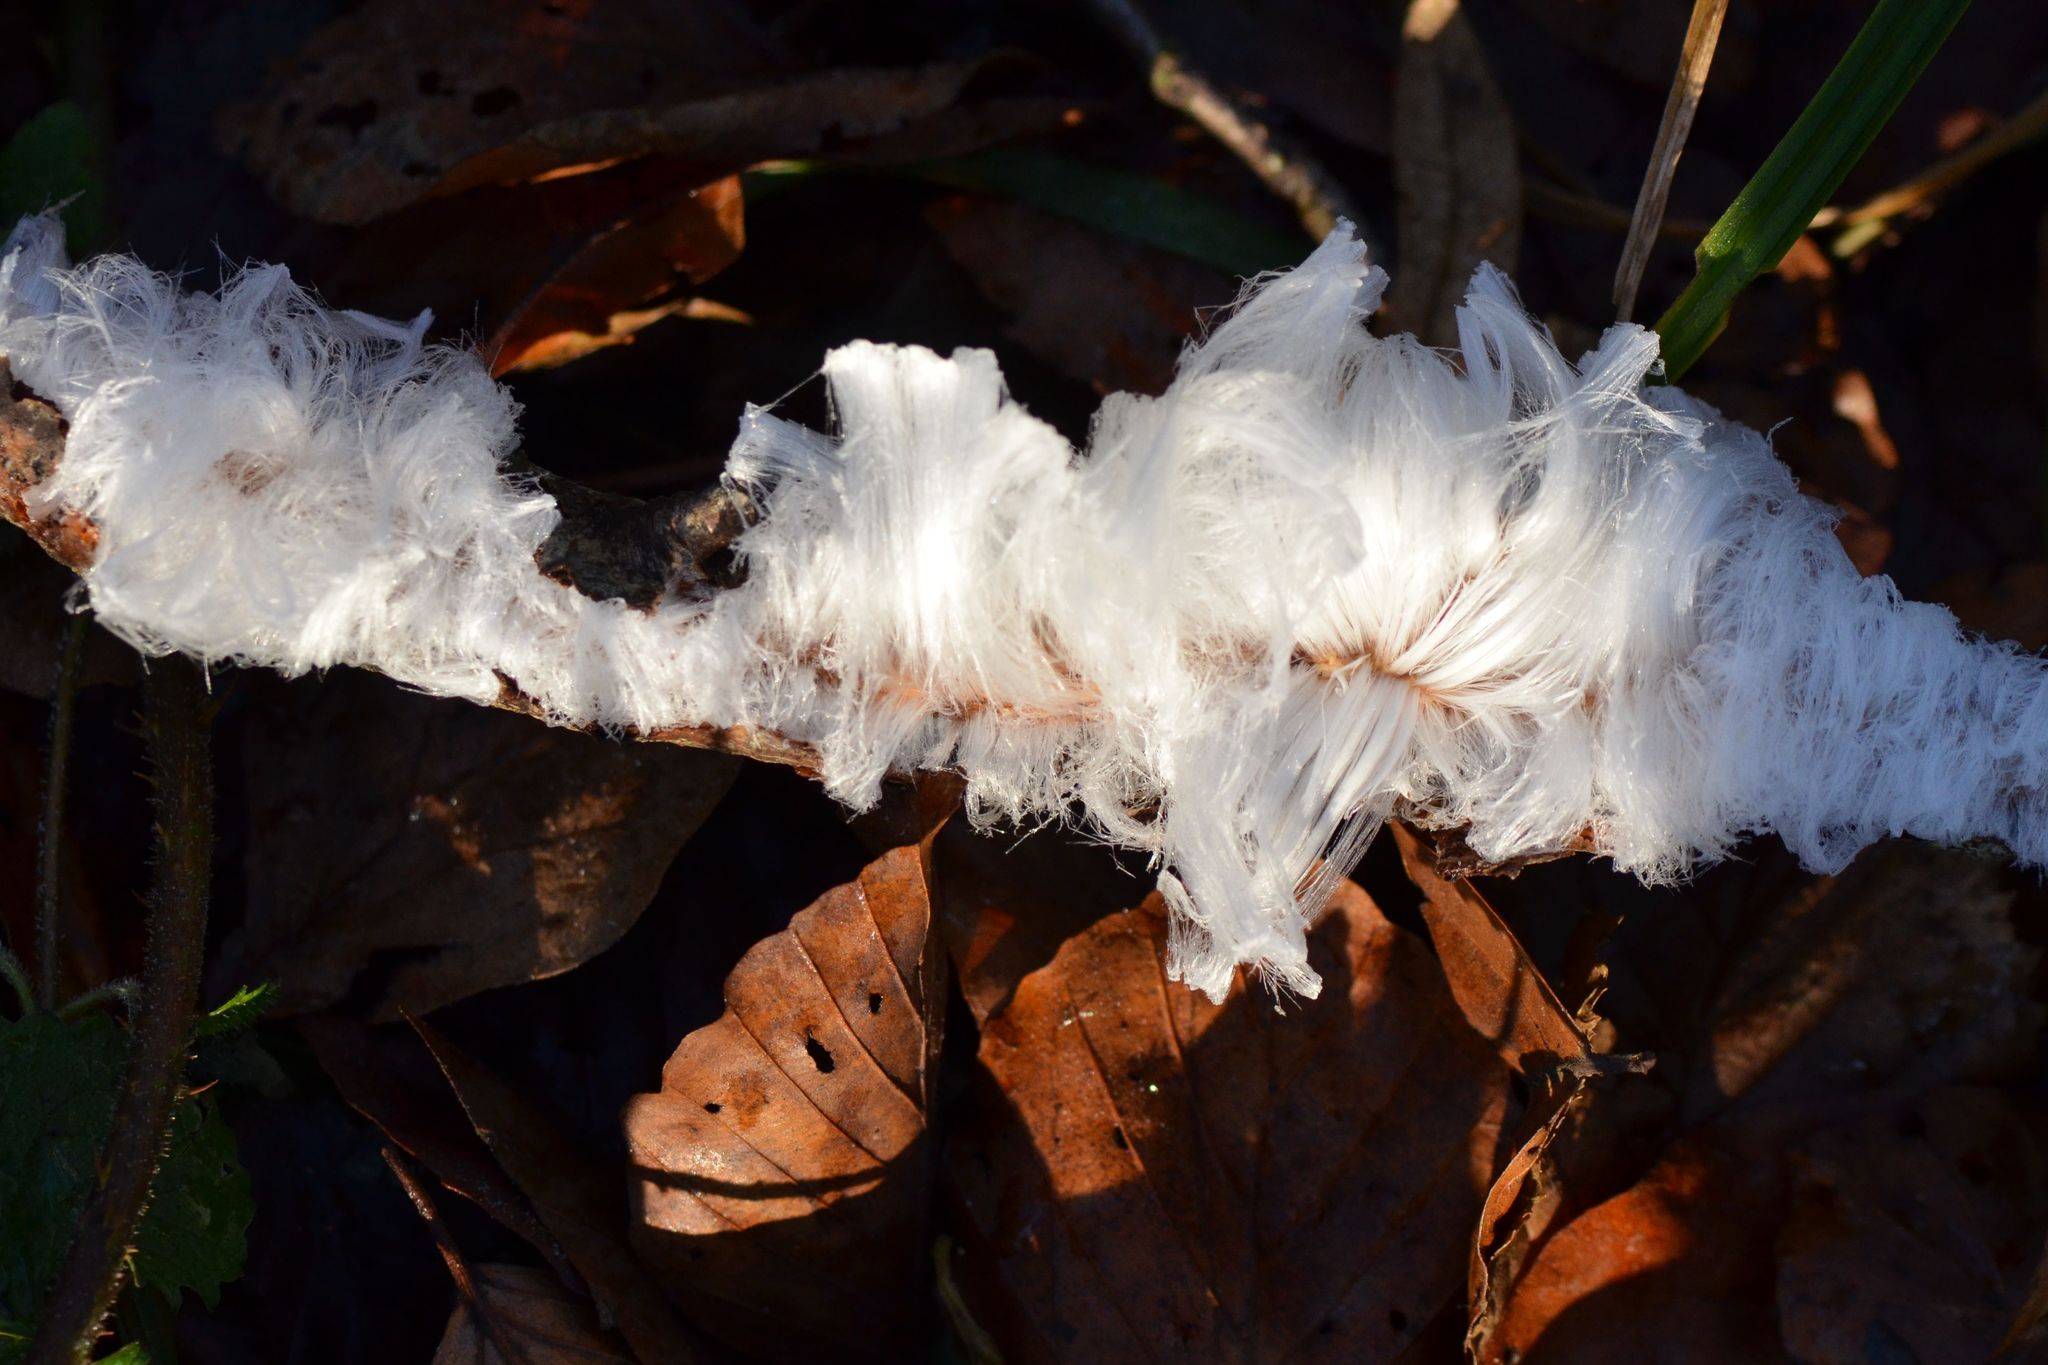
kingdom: Fungi
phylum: Basidiomycota
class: Agaricomycetes
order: Auriculariales
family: Auriculariaceae
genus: Exidiopsis
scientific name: Exidiopsis effusa
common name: Hair ice crust
